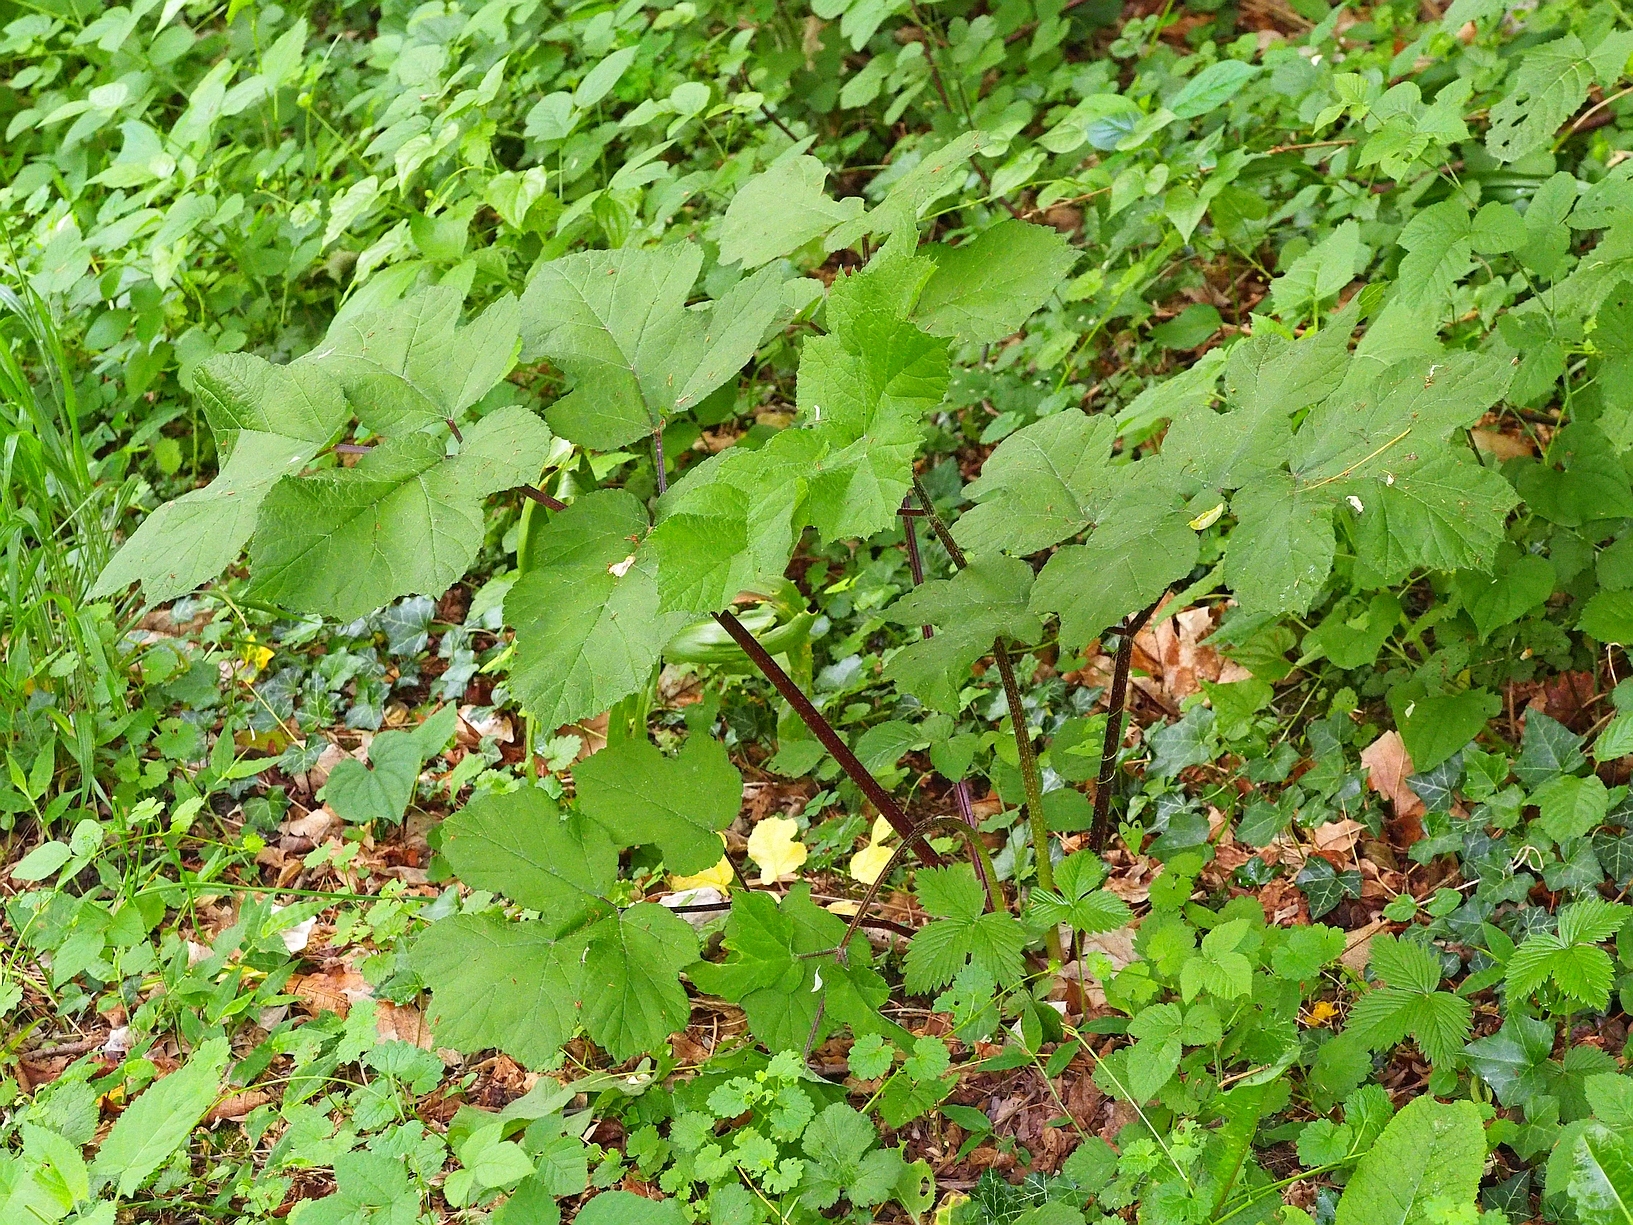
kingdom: Plantae
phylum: Tracheophyta
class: Magnoliopsida
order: Apiales
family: Apiaceae
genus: Heracleum
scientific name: Heracleum sphondylium
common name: Hogweed
